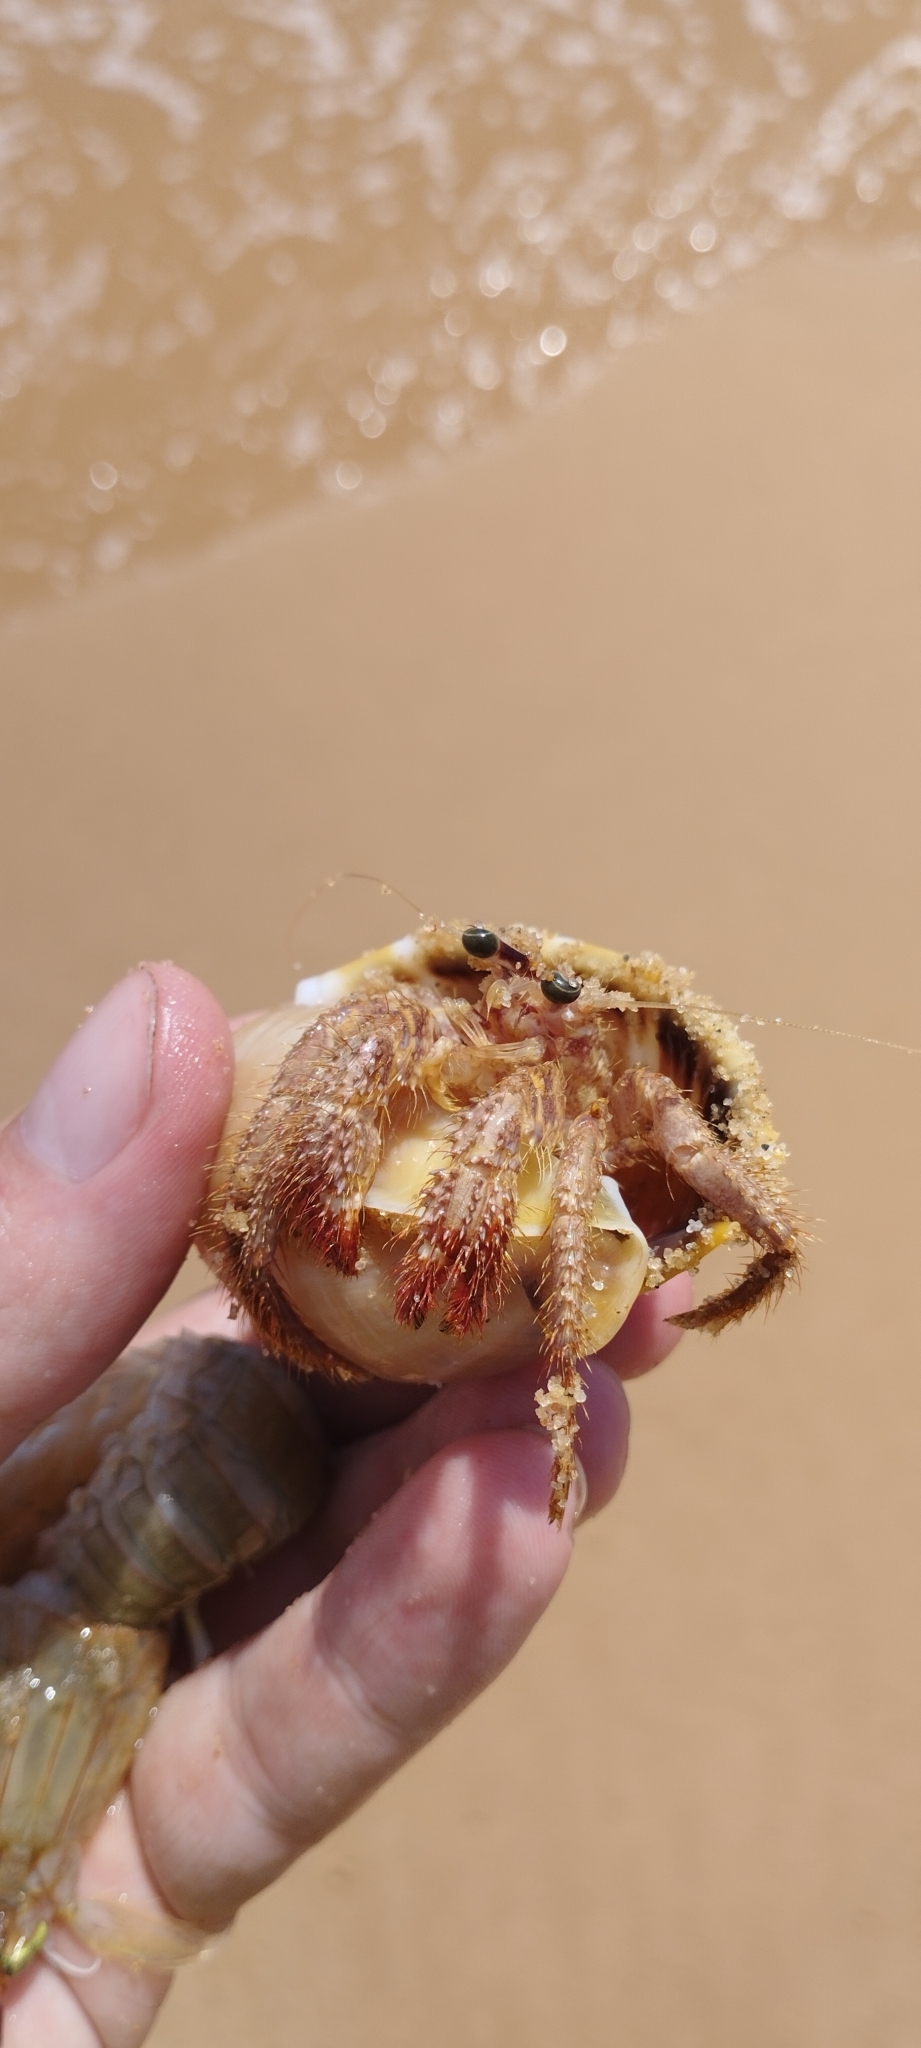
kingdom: Animalia
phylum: Arthropoda
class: Malacostraca
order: Decapoda
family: Diogenidae
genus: Dardanus
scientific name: Dardanus hessii
